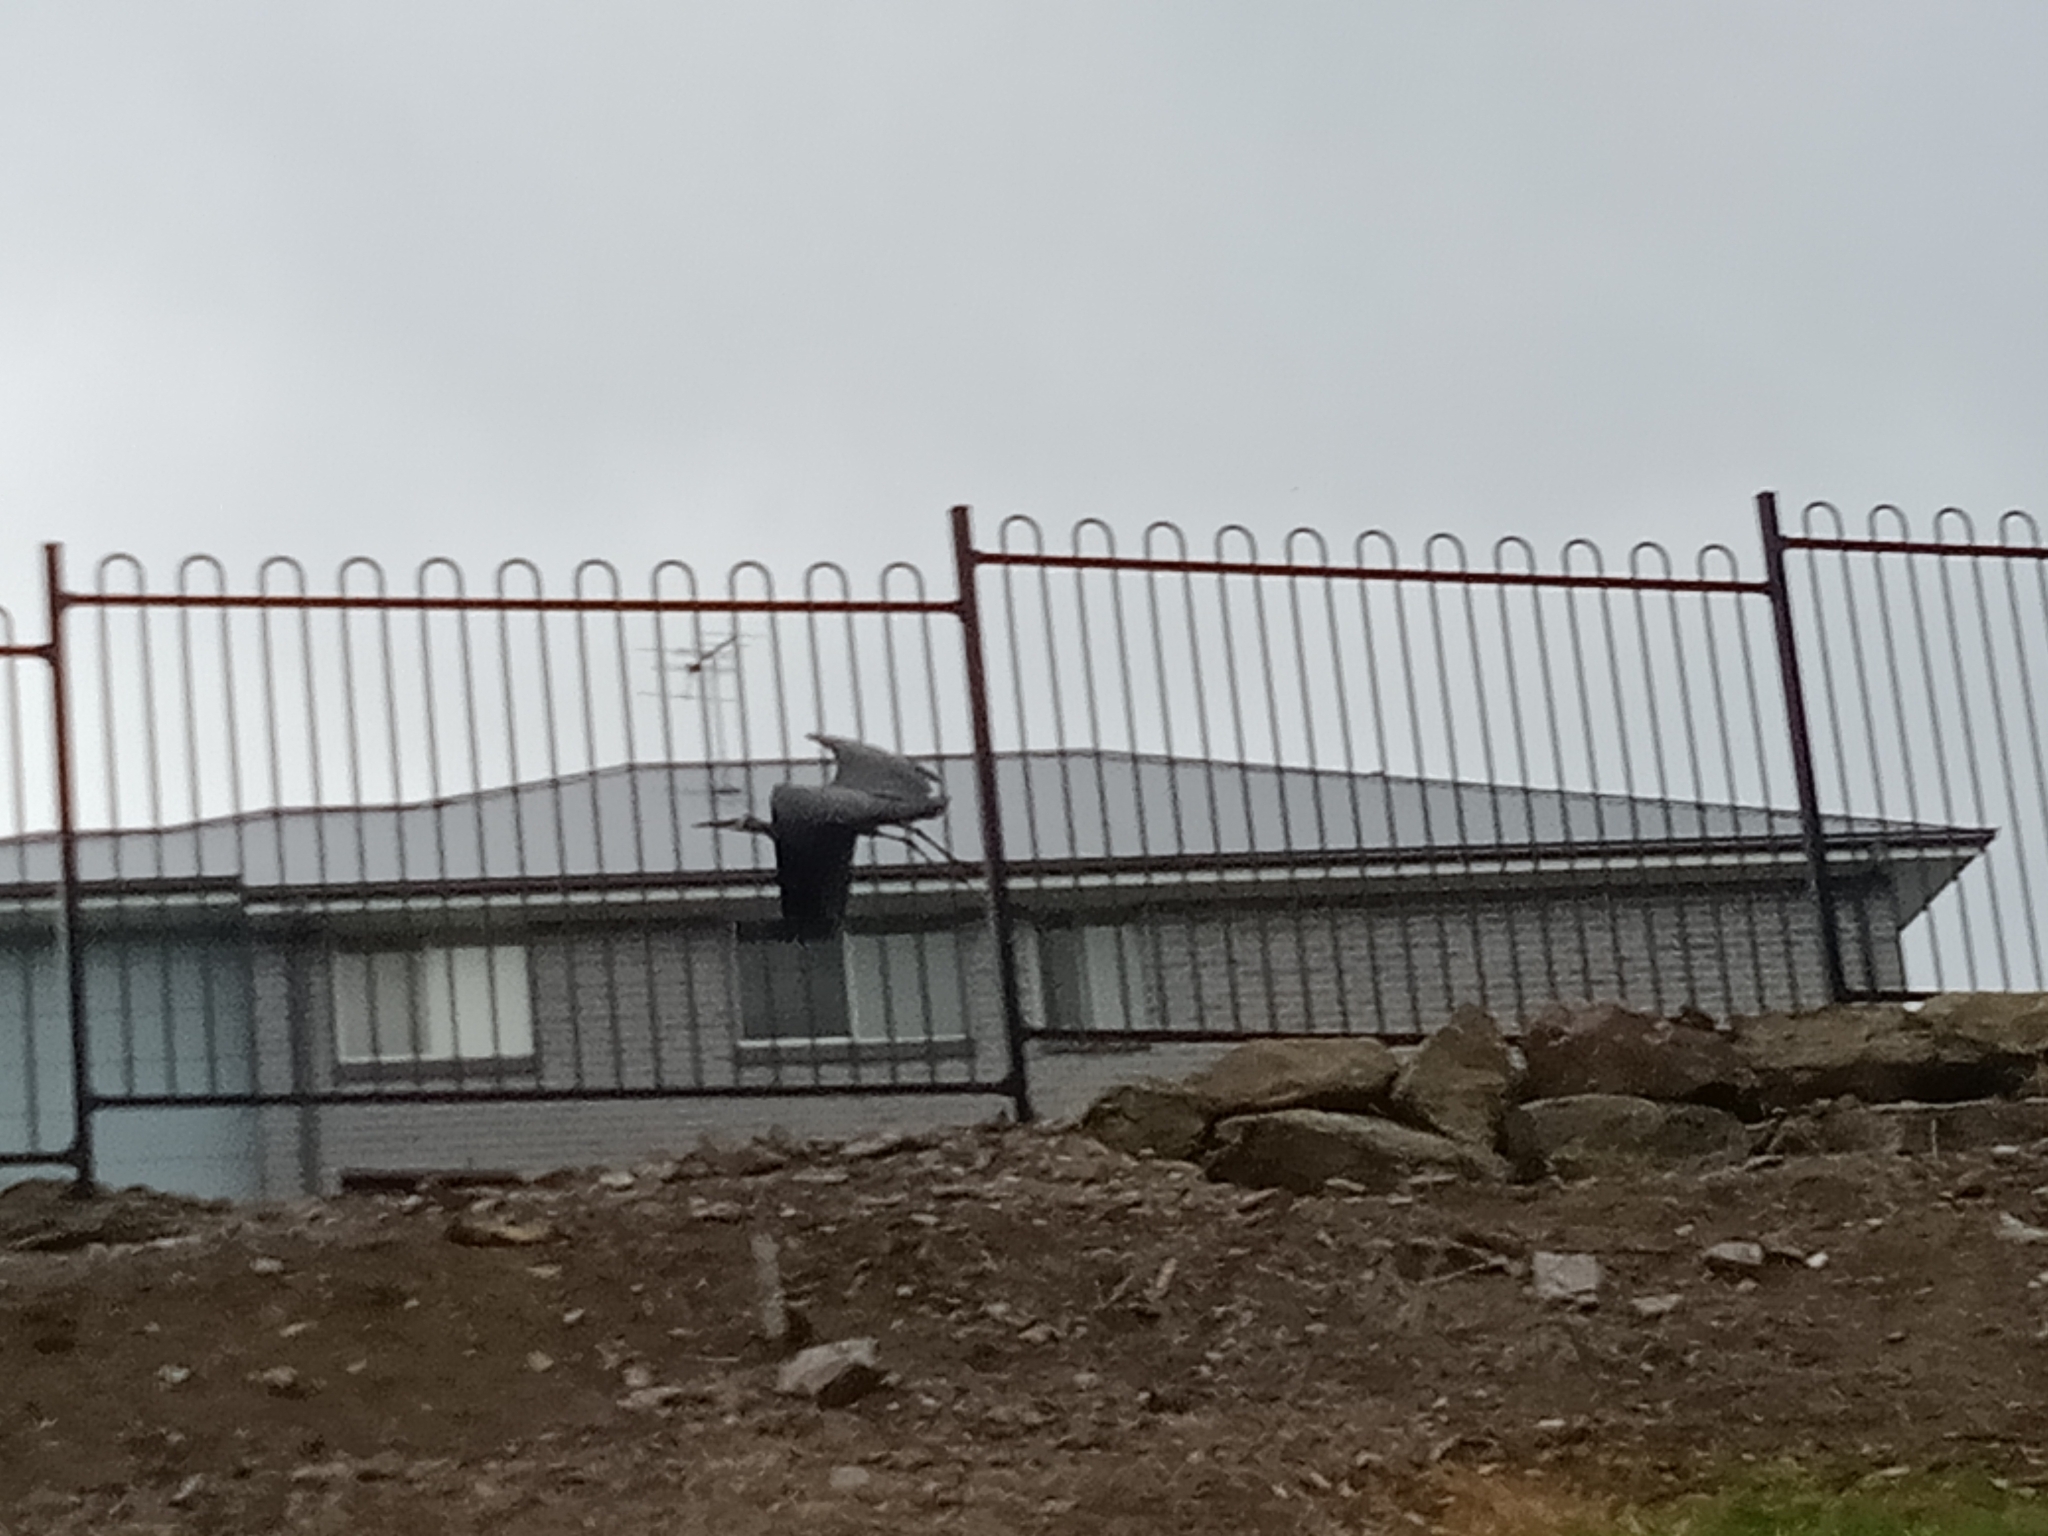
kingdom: Animalia
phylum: Chordata
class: Aves
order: Pelecaniformes
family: Ardeidae
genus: Egretta
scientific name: Egretta novaehollandiae
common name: White-faced heron
